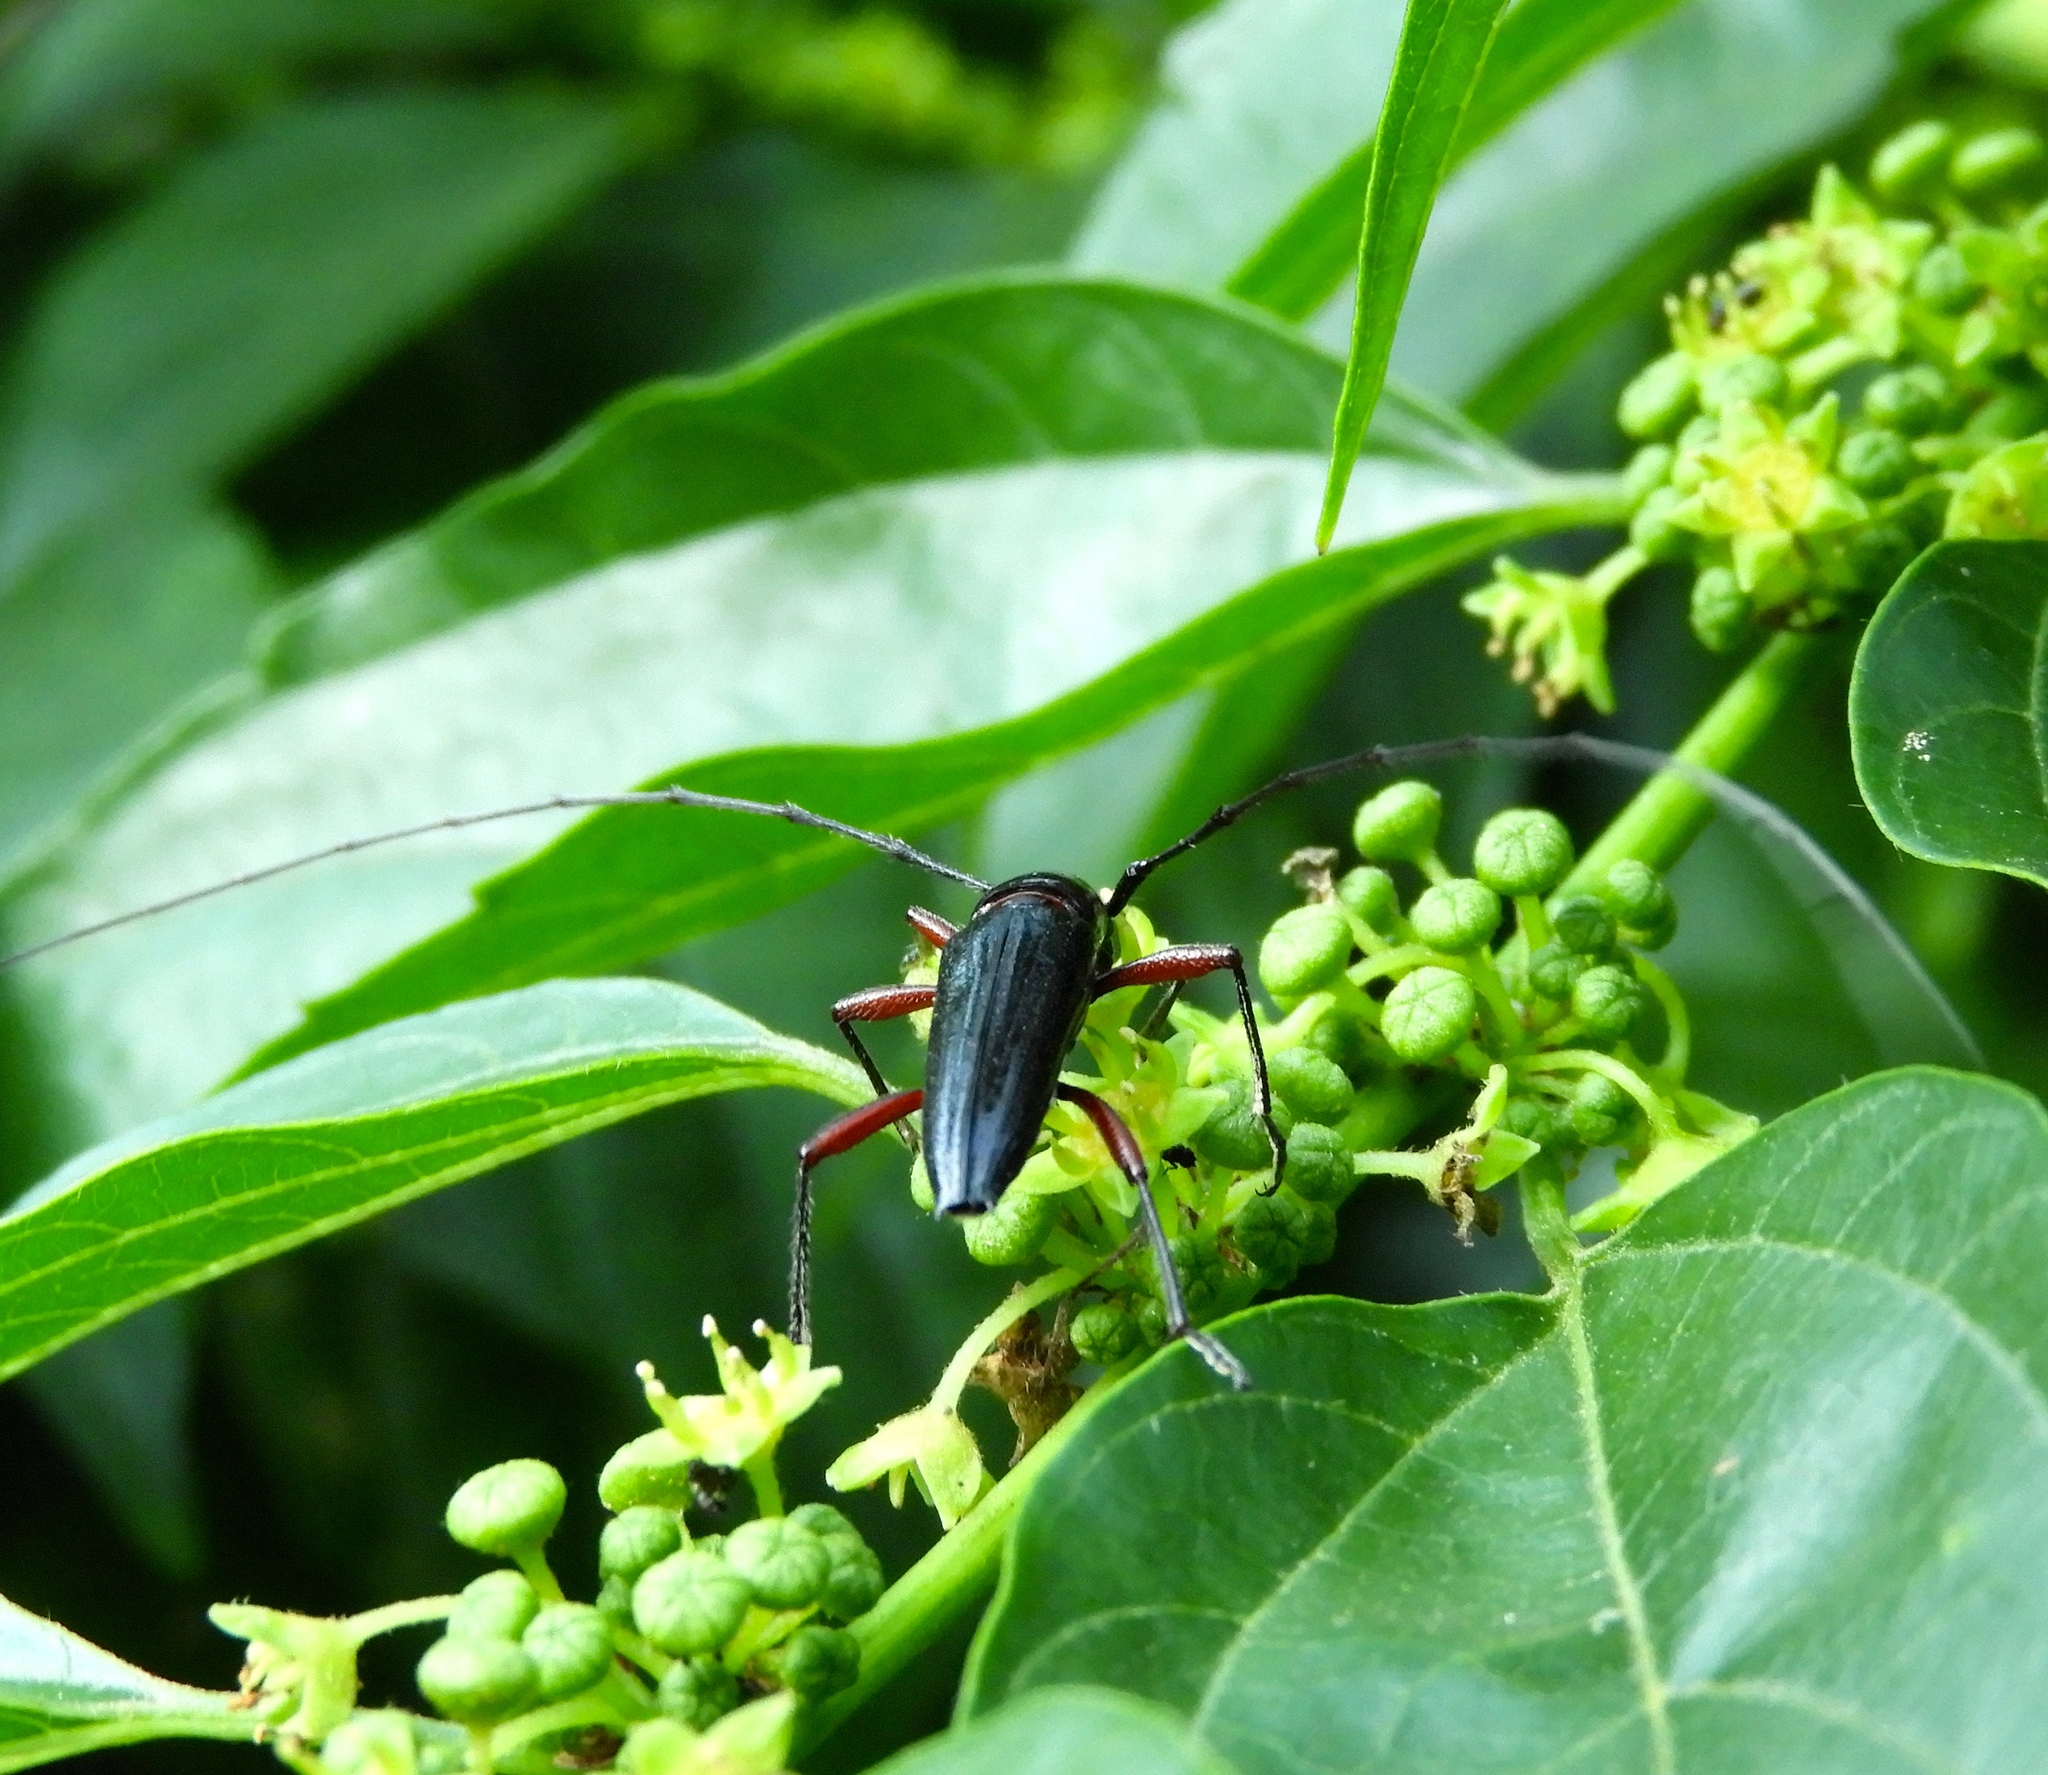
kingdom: Animalia
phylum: Arthropoda
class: Insecta
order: Coleoptera
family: Cerambycidae
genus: Stenosphenus
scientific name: Stenosphenus
